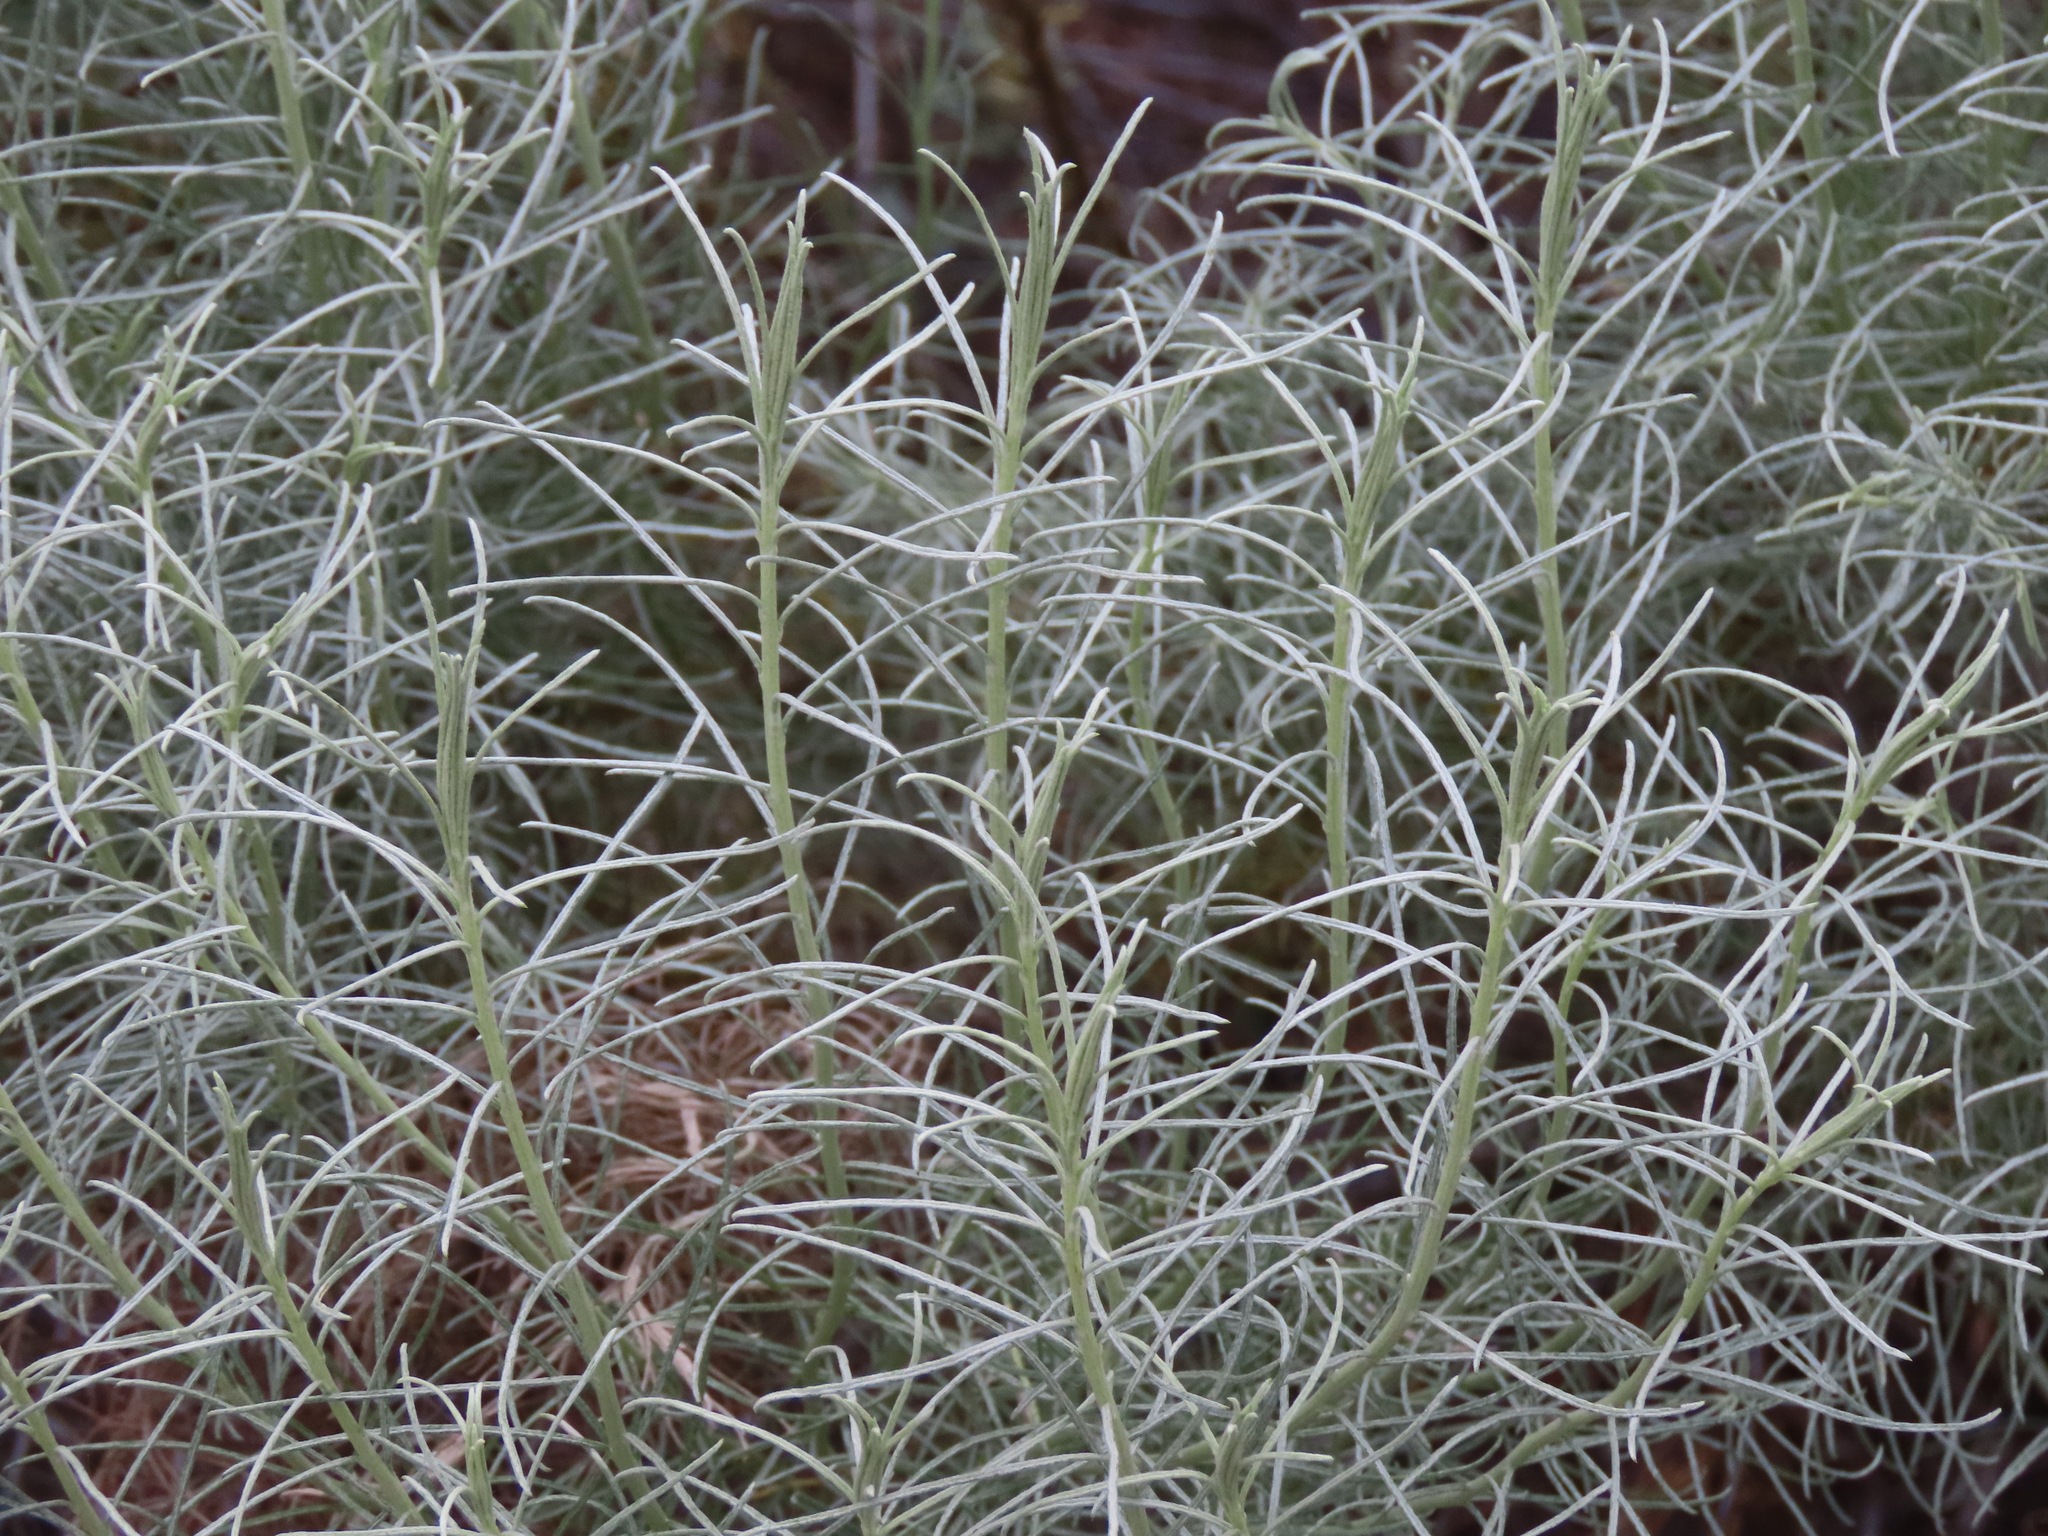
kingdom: Plantae
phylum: Tracheophyta
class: Magnoliopsida
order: Asterales
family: Asteraceae
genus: Ericameria
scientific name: Ericameria nauseosa
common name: Rubber rabbitbrush
